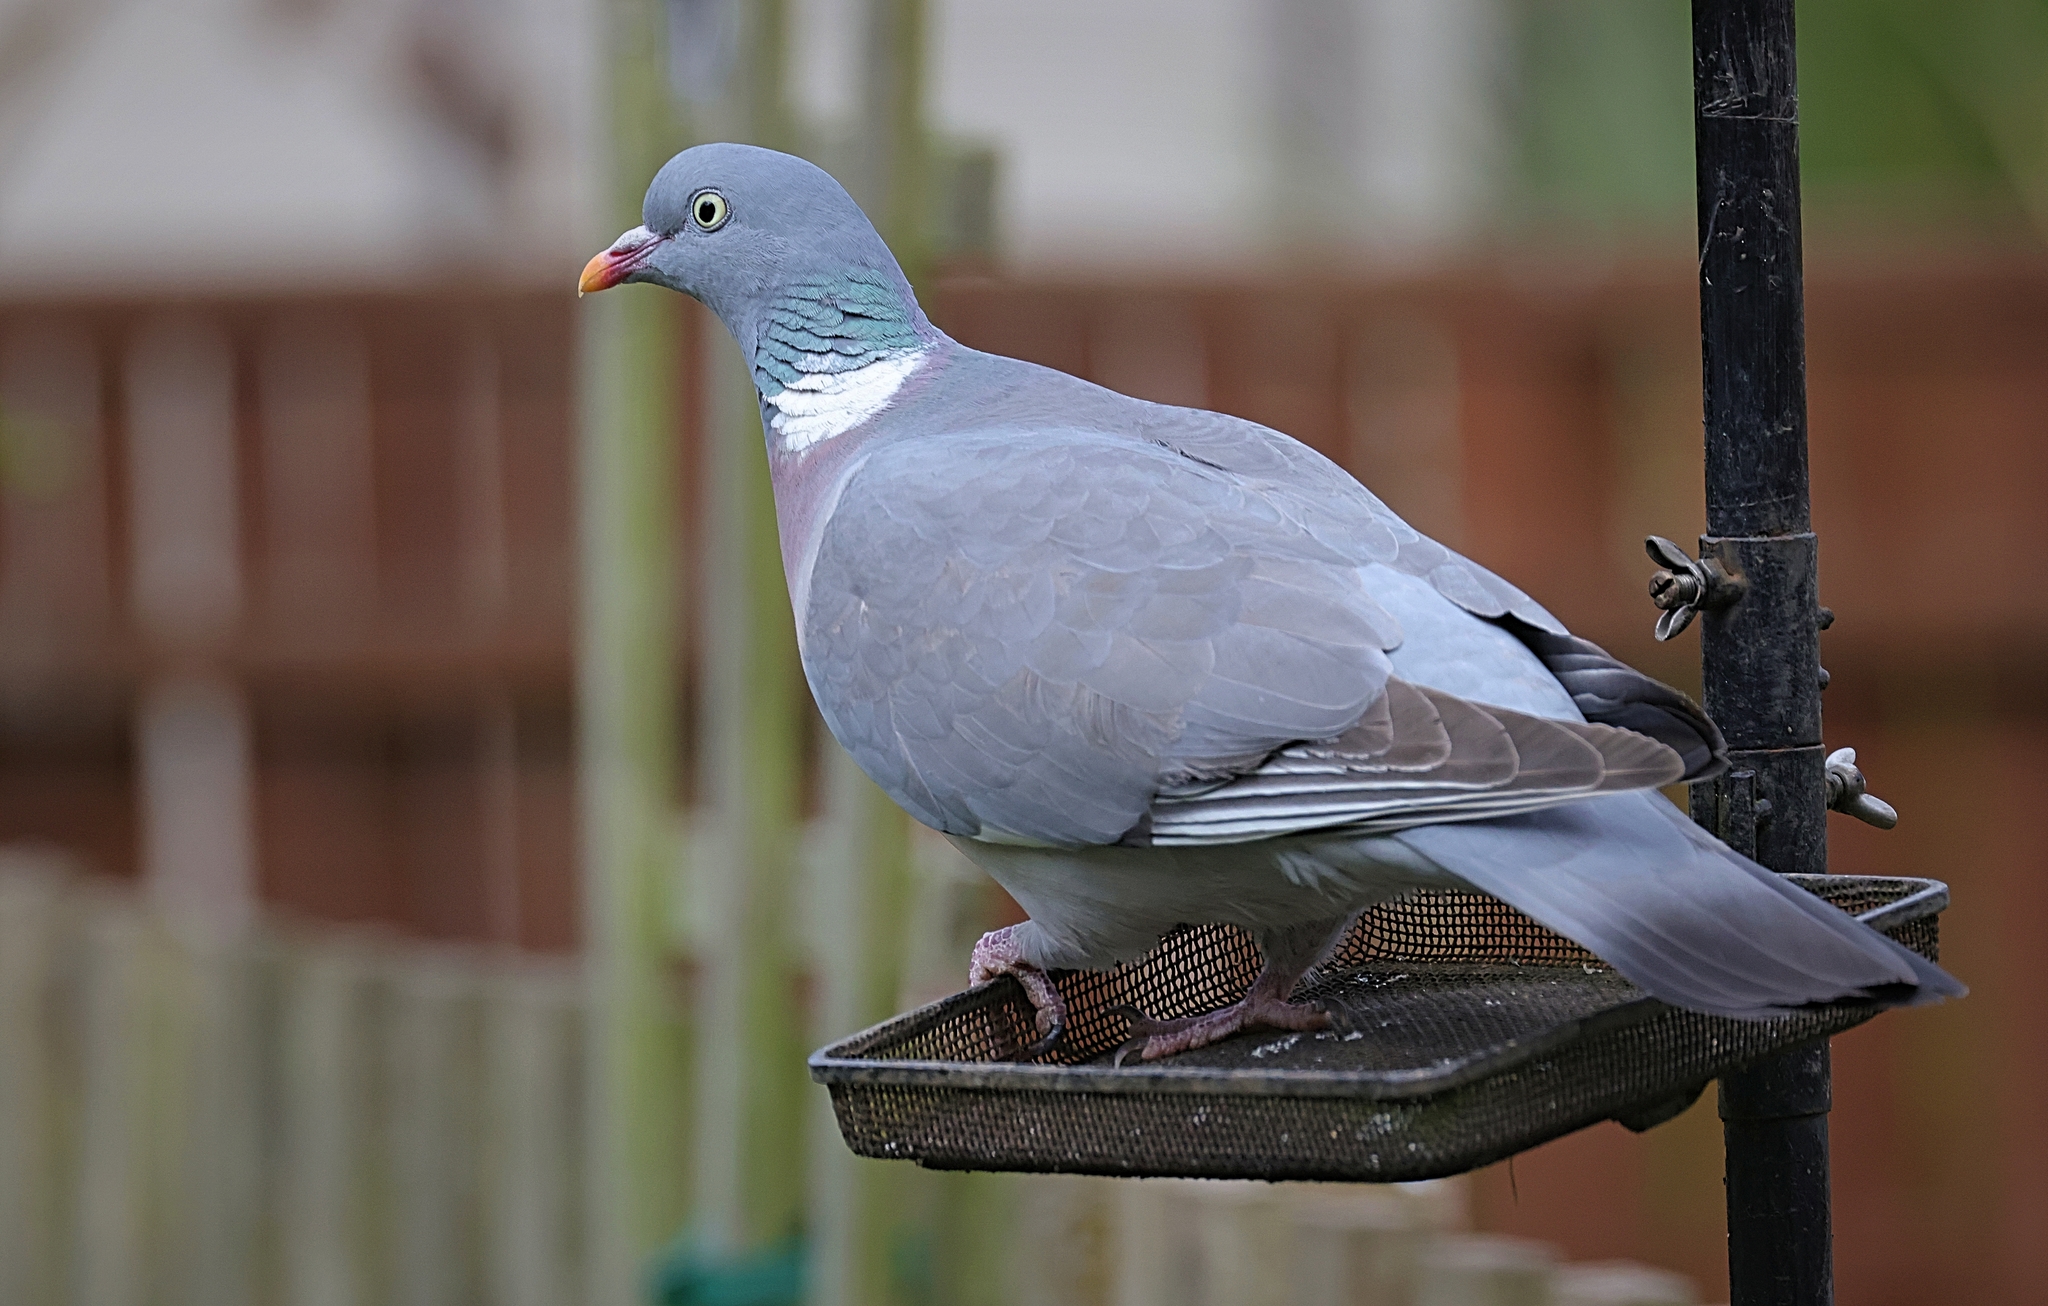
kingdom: Animalia
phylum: Chordata
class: Aves
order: Columbiformes
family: Columbidae
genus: Columba
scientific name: Columba palumbus
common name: Common wood pigeon
